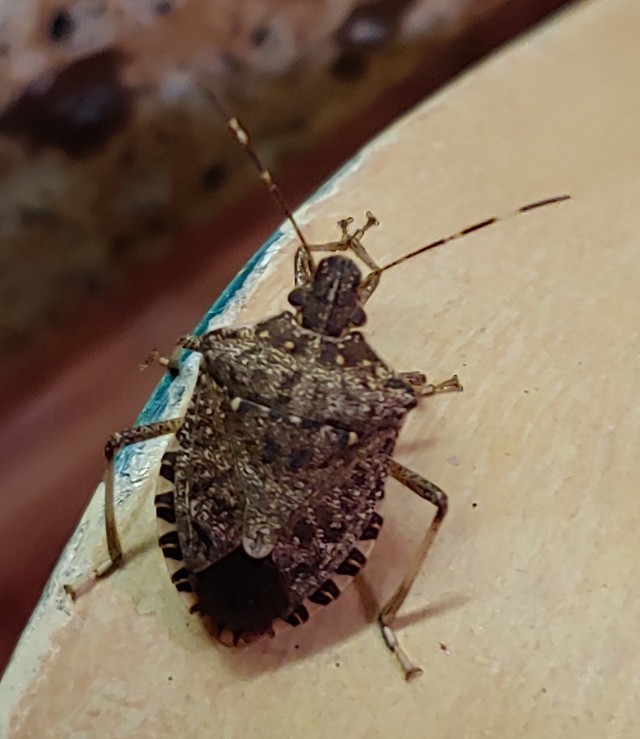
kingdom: Animalia
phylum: Arthropoda
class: Insecta
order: Hemiptera
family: Pentatomidae
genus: Halyomorpha
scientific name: Halyomorpha halys
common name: Brown marmorated stink bug
